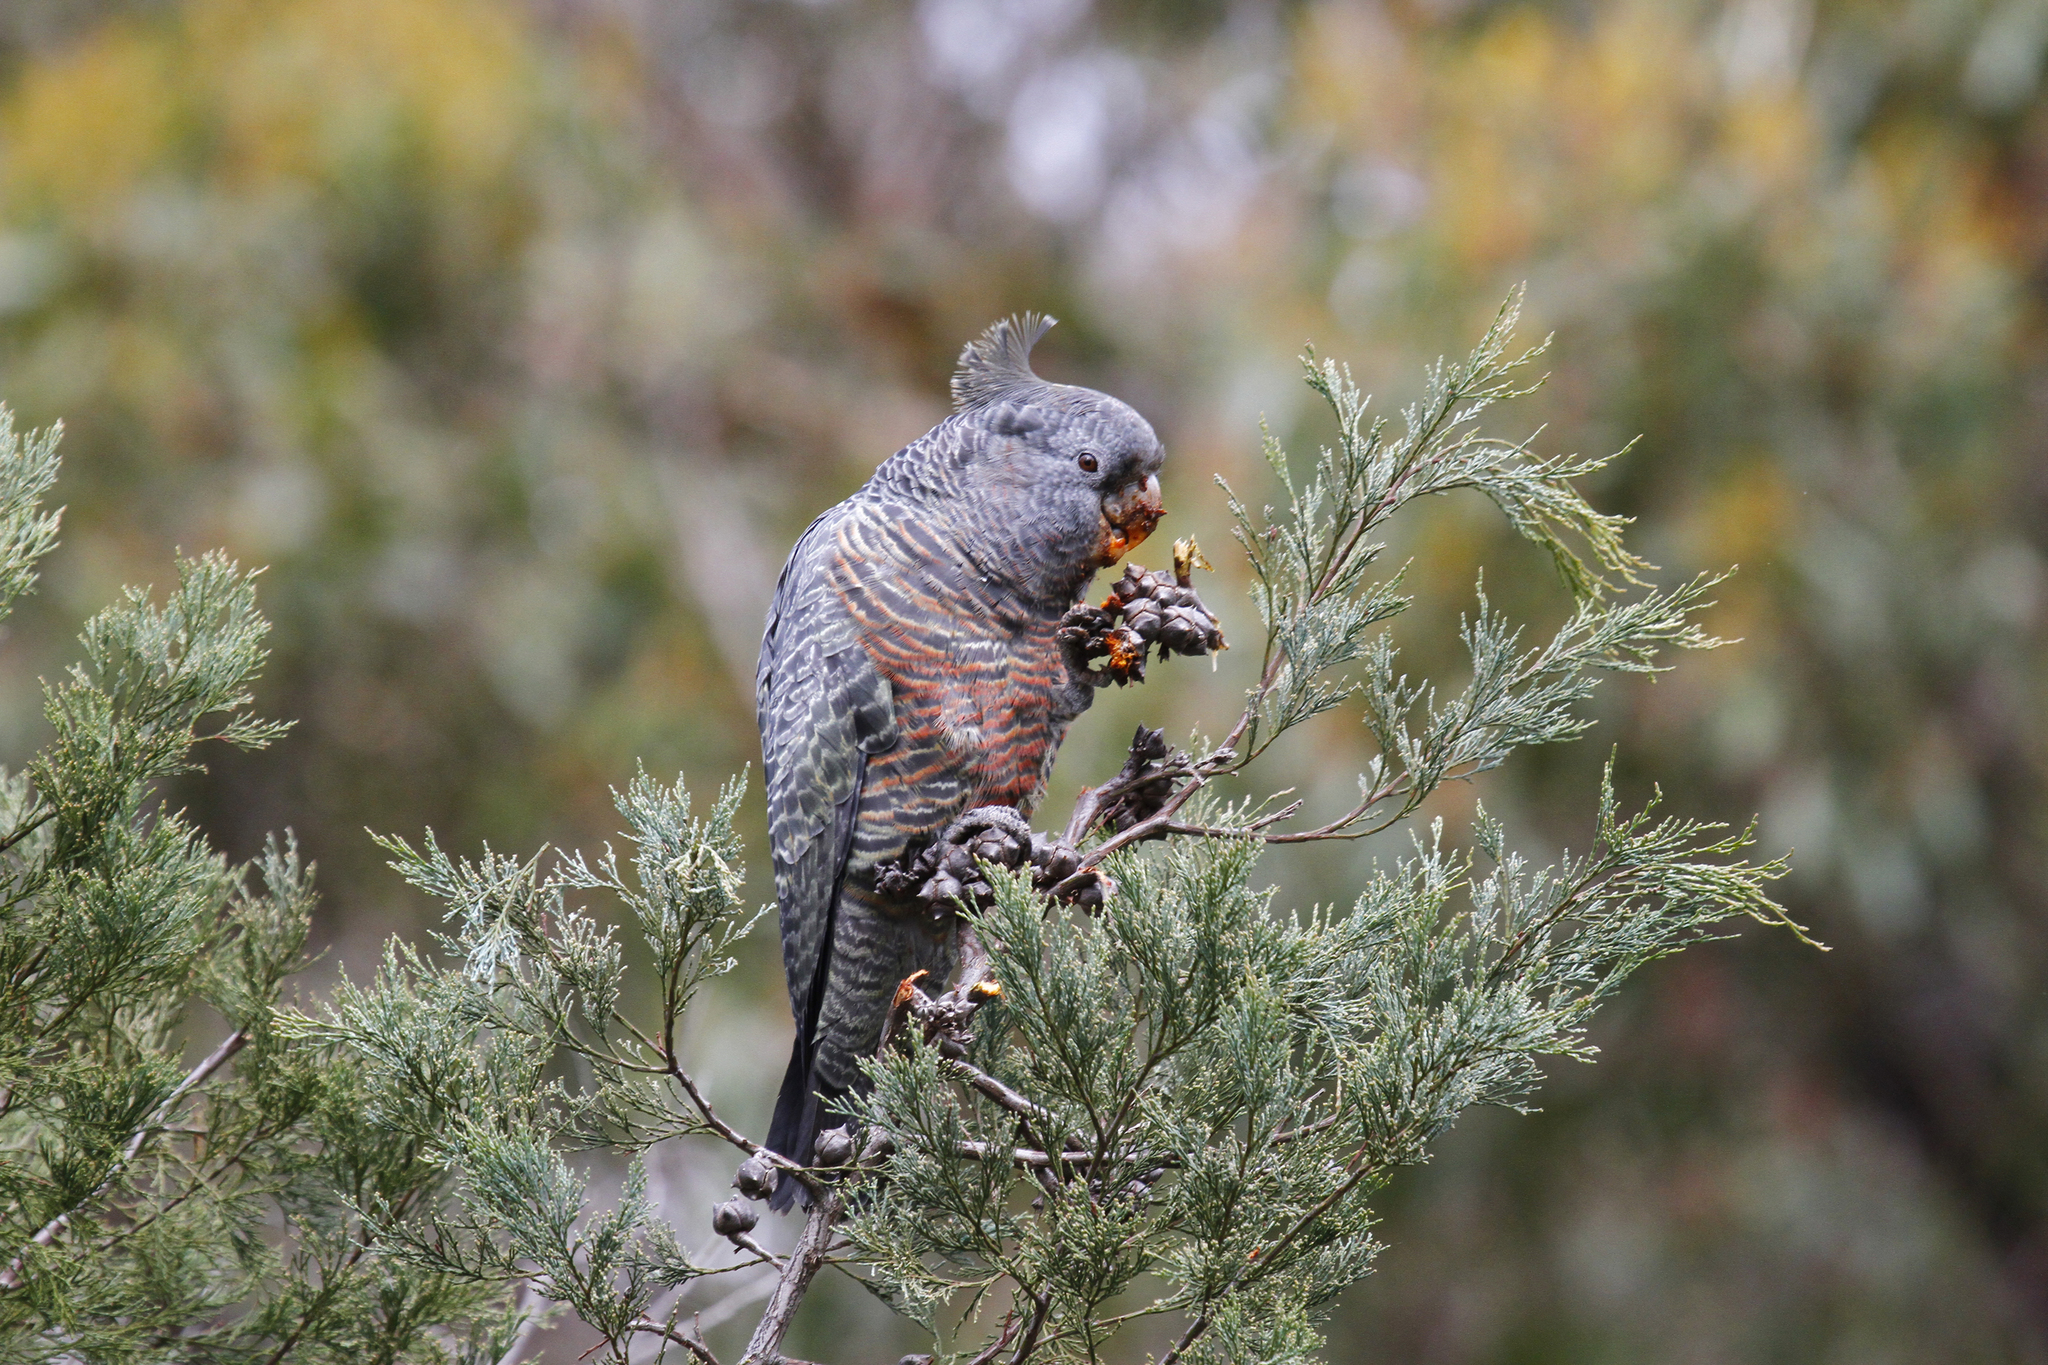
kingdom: Animalia
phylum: Chordata
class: Aves
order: Psittaciformes
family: Psittacidae
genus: Callocephalon
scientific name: Callocephalon fimbriatum
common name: Gang-gang cockatoo
